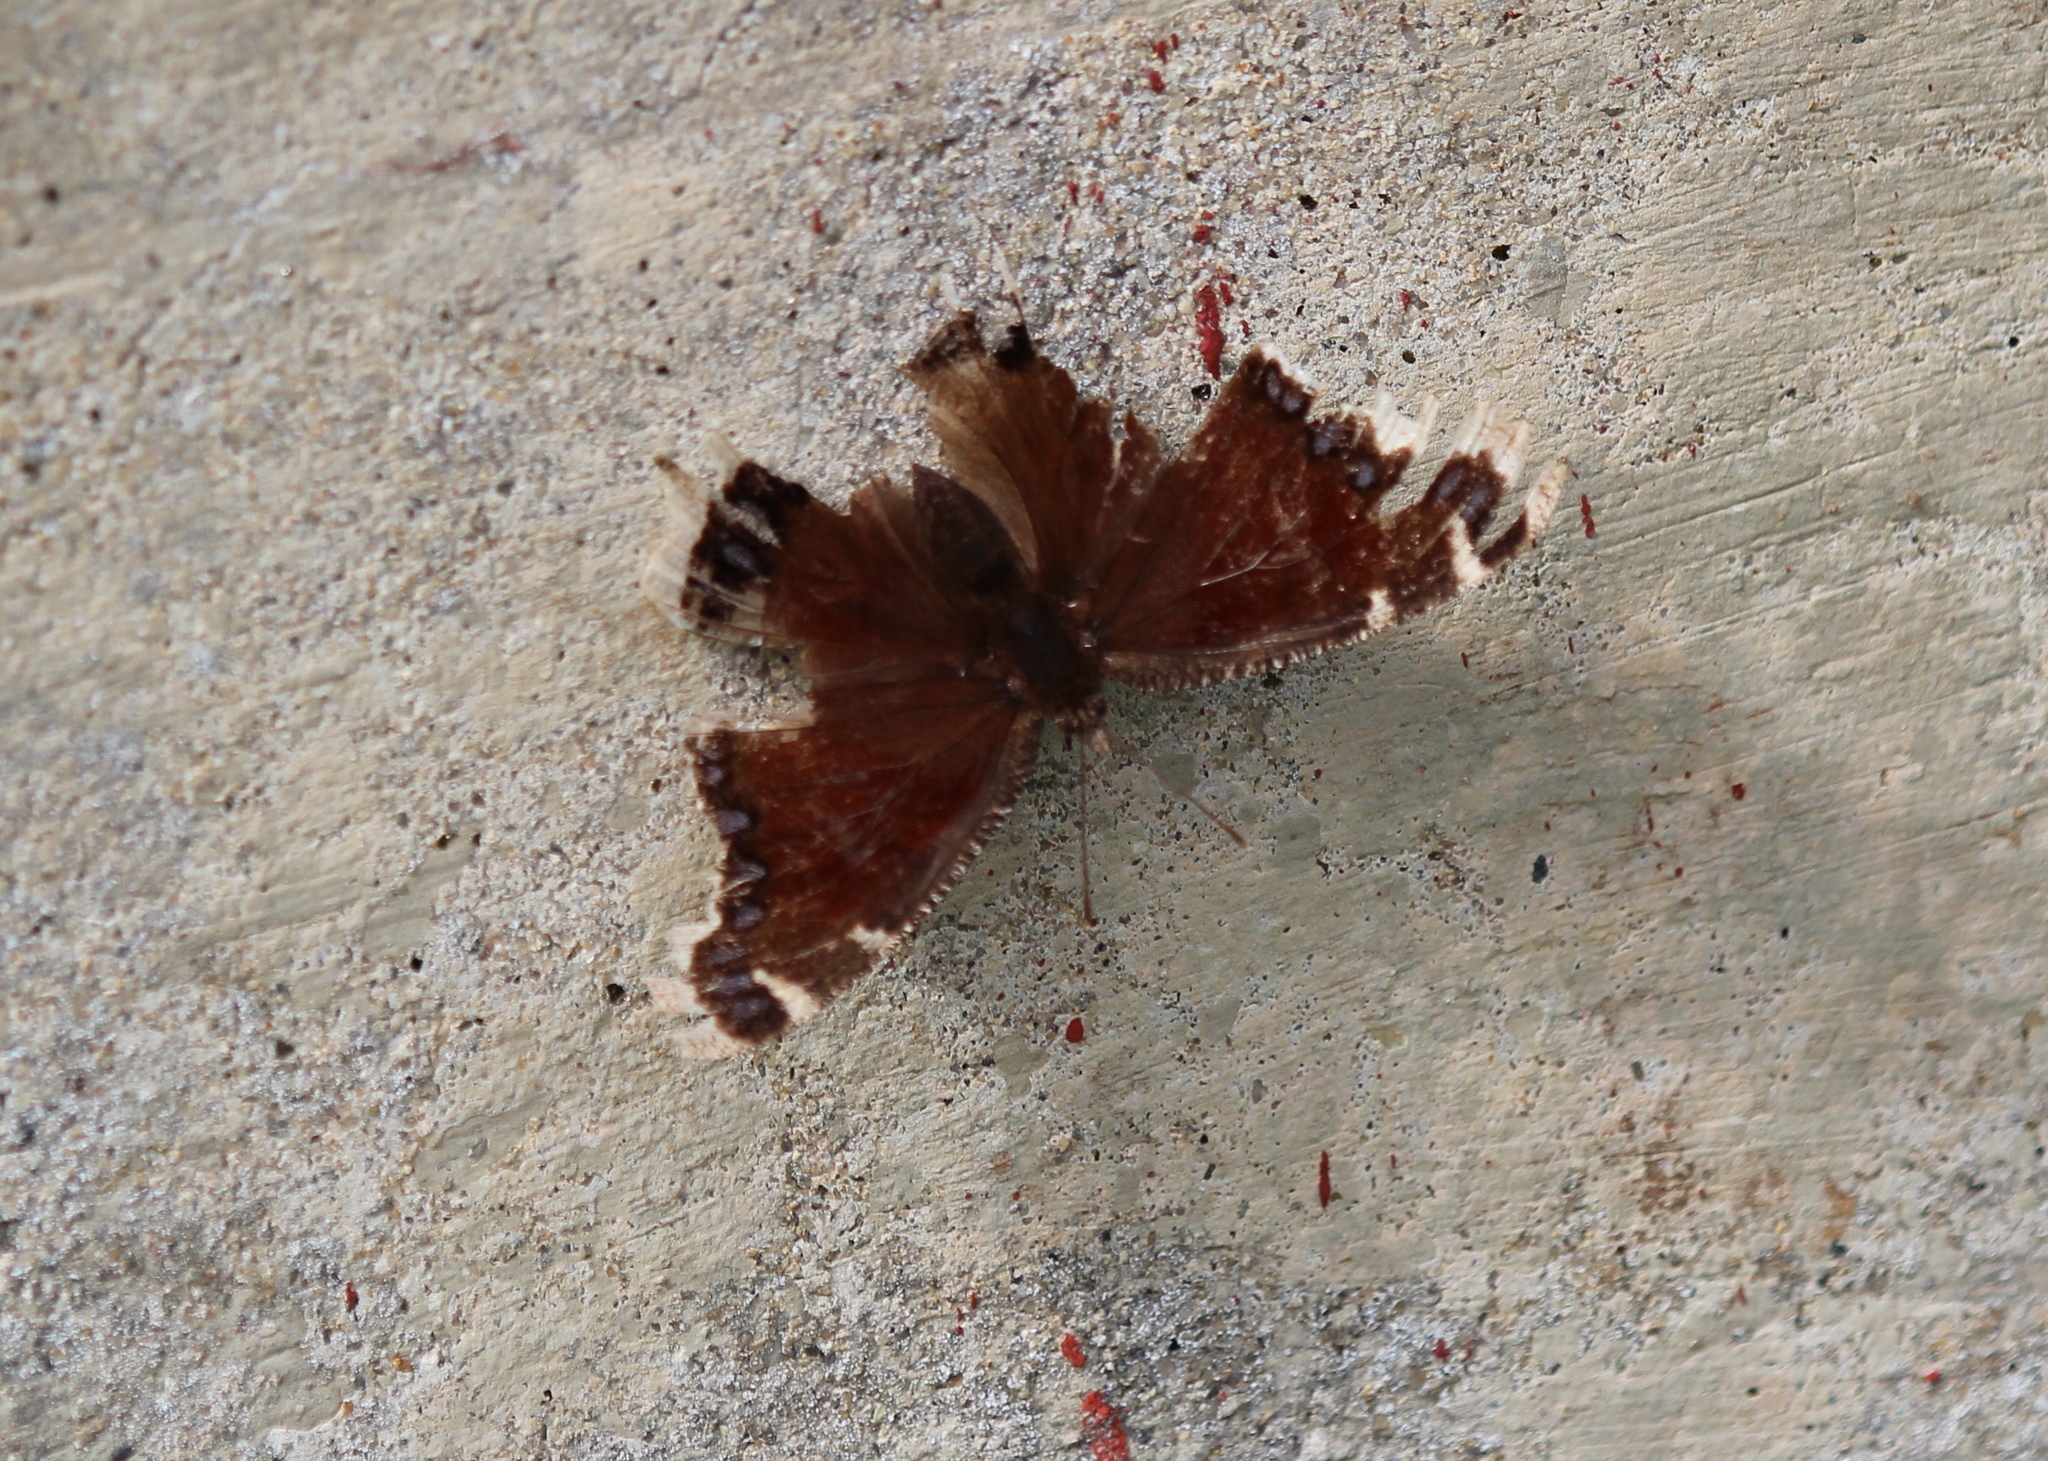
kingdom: Animalia
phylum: Arthropoda
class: Insecta
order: Lepidoptera
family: Nymphalidae
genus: Nymphalis
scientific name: Nymphalis antiopa
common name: Camberwell beauty
